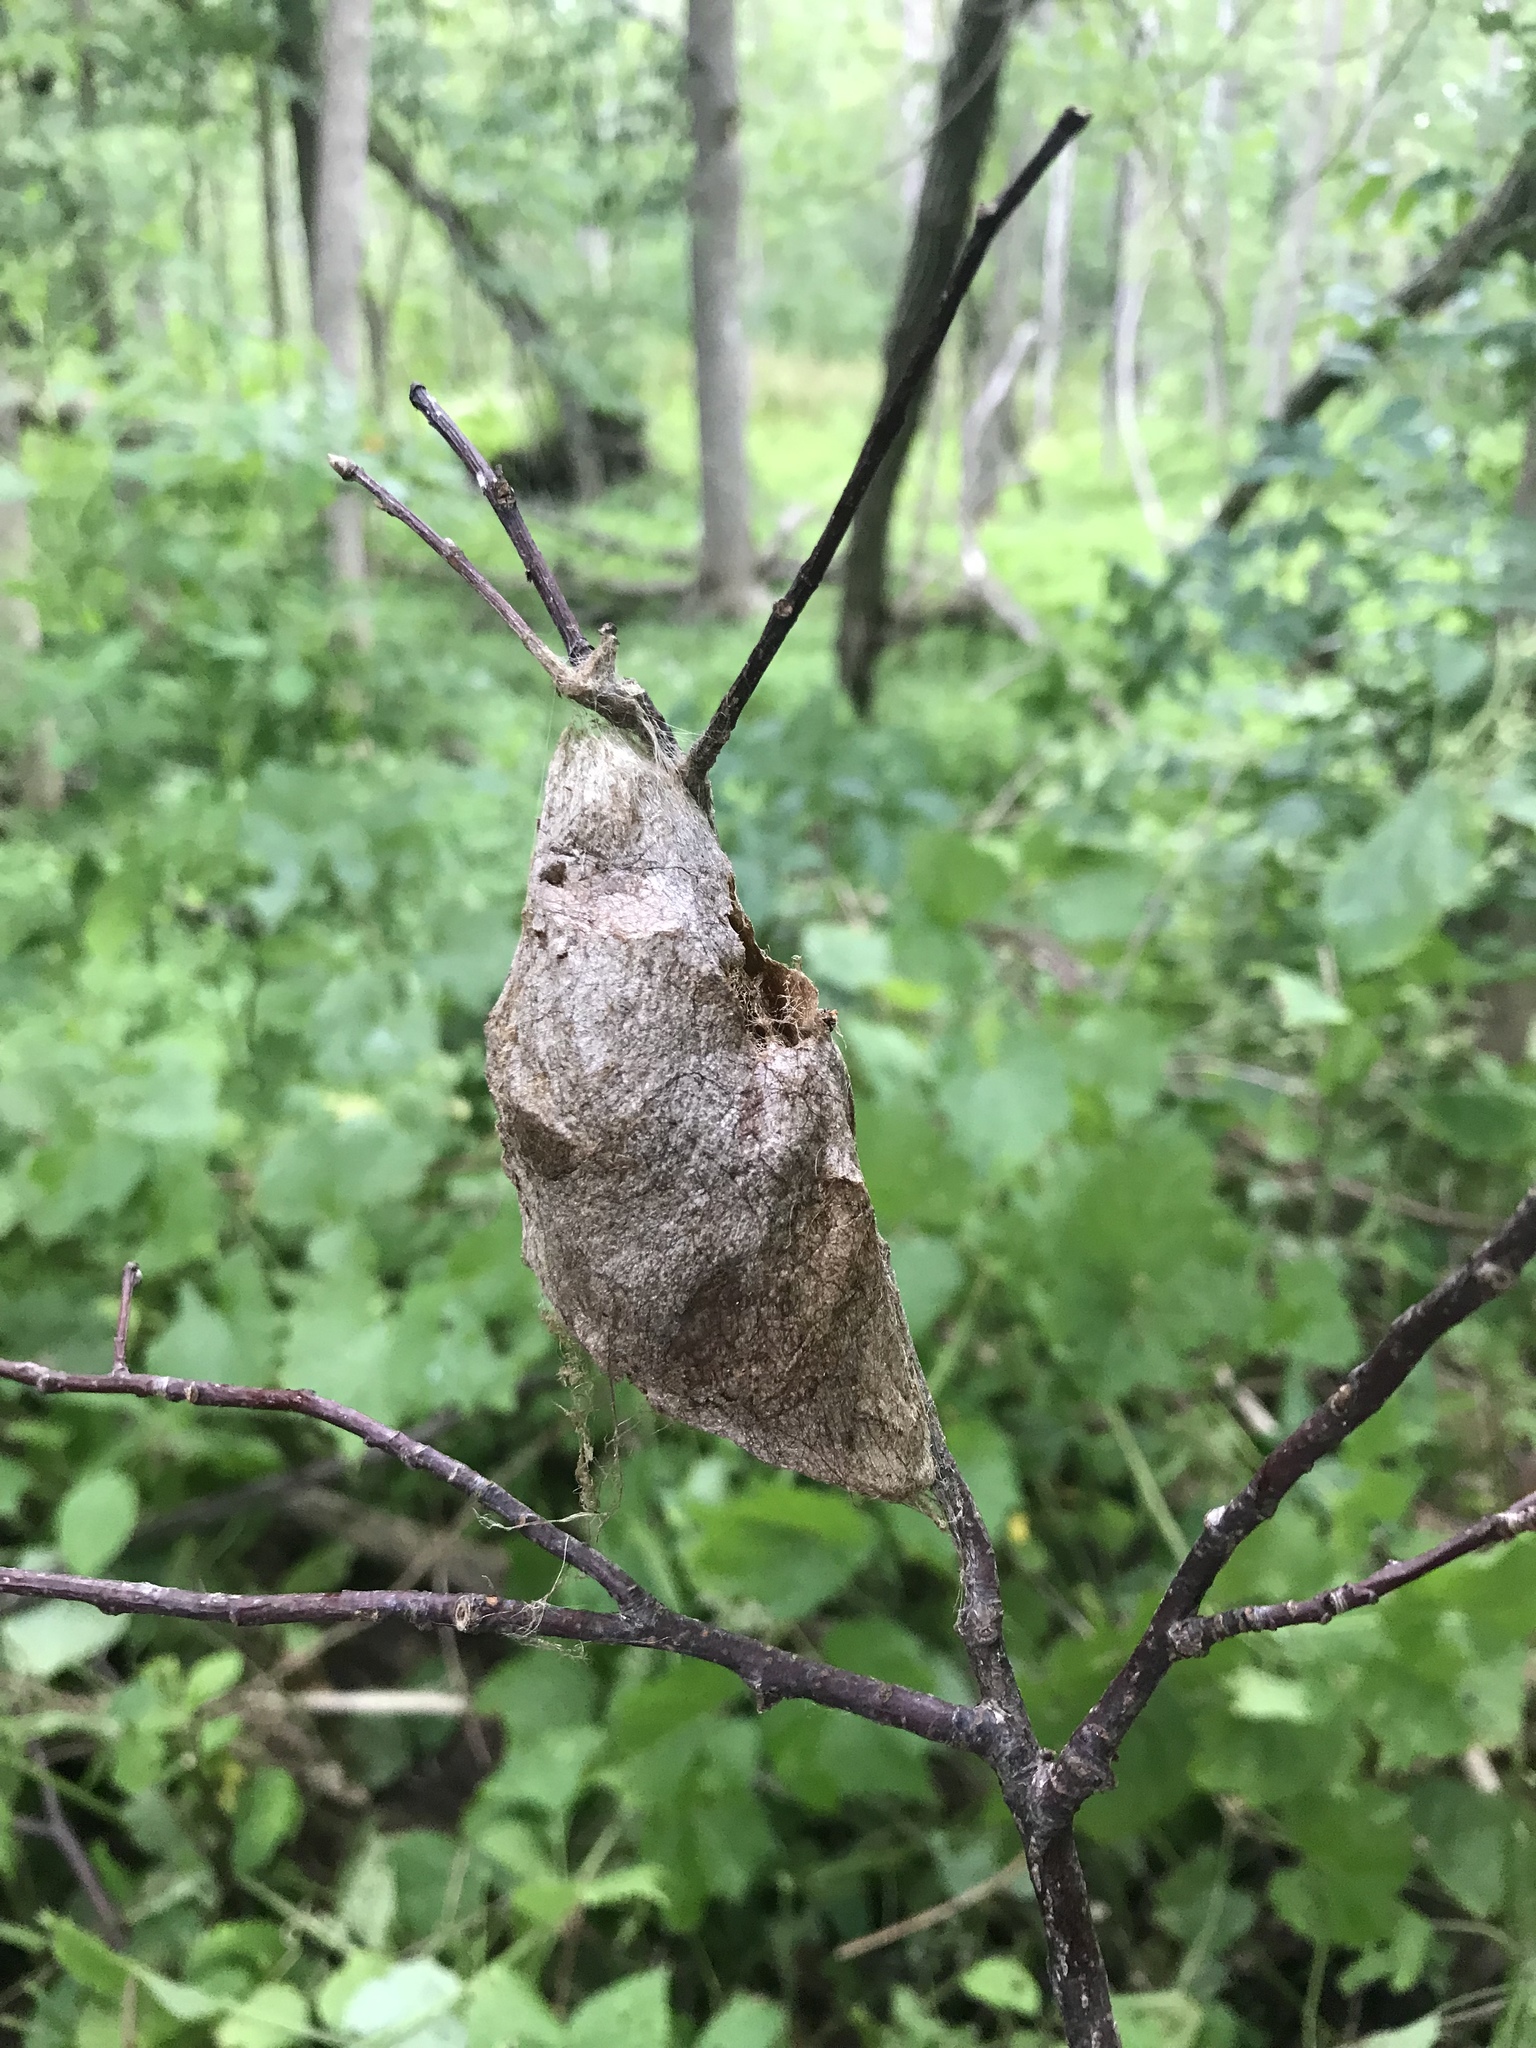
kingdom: Animalia
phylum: Arthropoda
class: Insecta
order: Lepidoptera
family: Saturniidae
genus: Hyalophora
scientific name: Hyalophora cecropia
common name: Cecropia silkmoth
